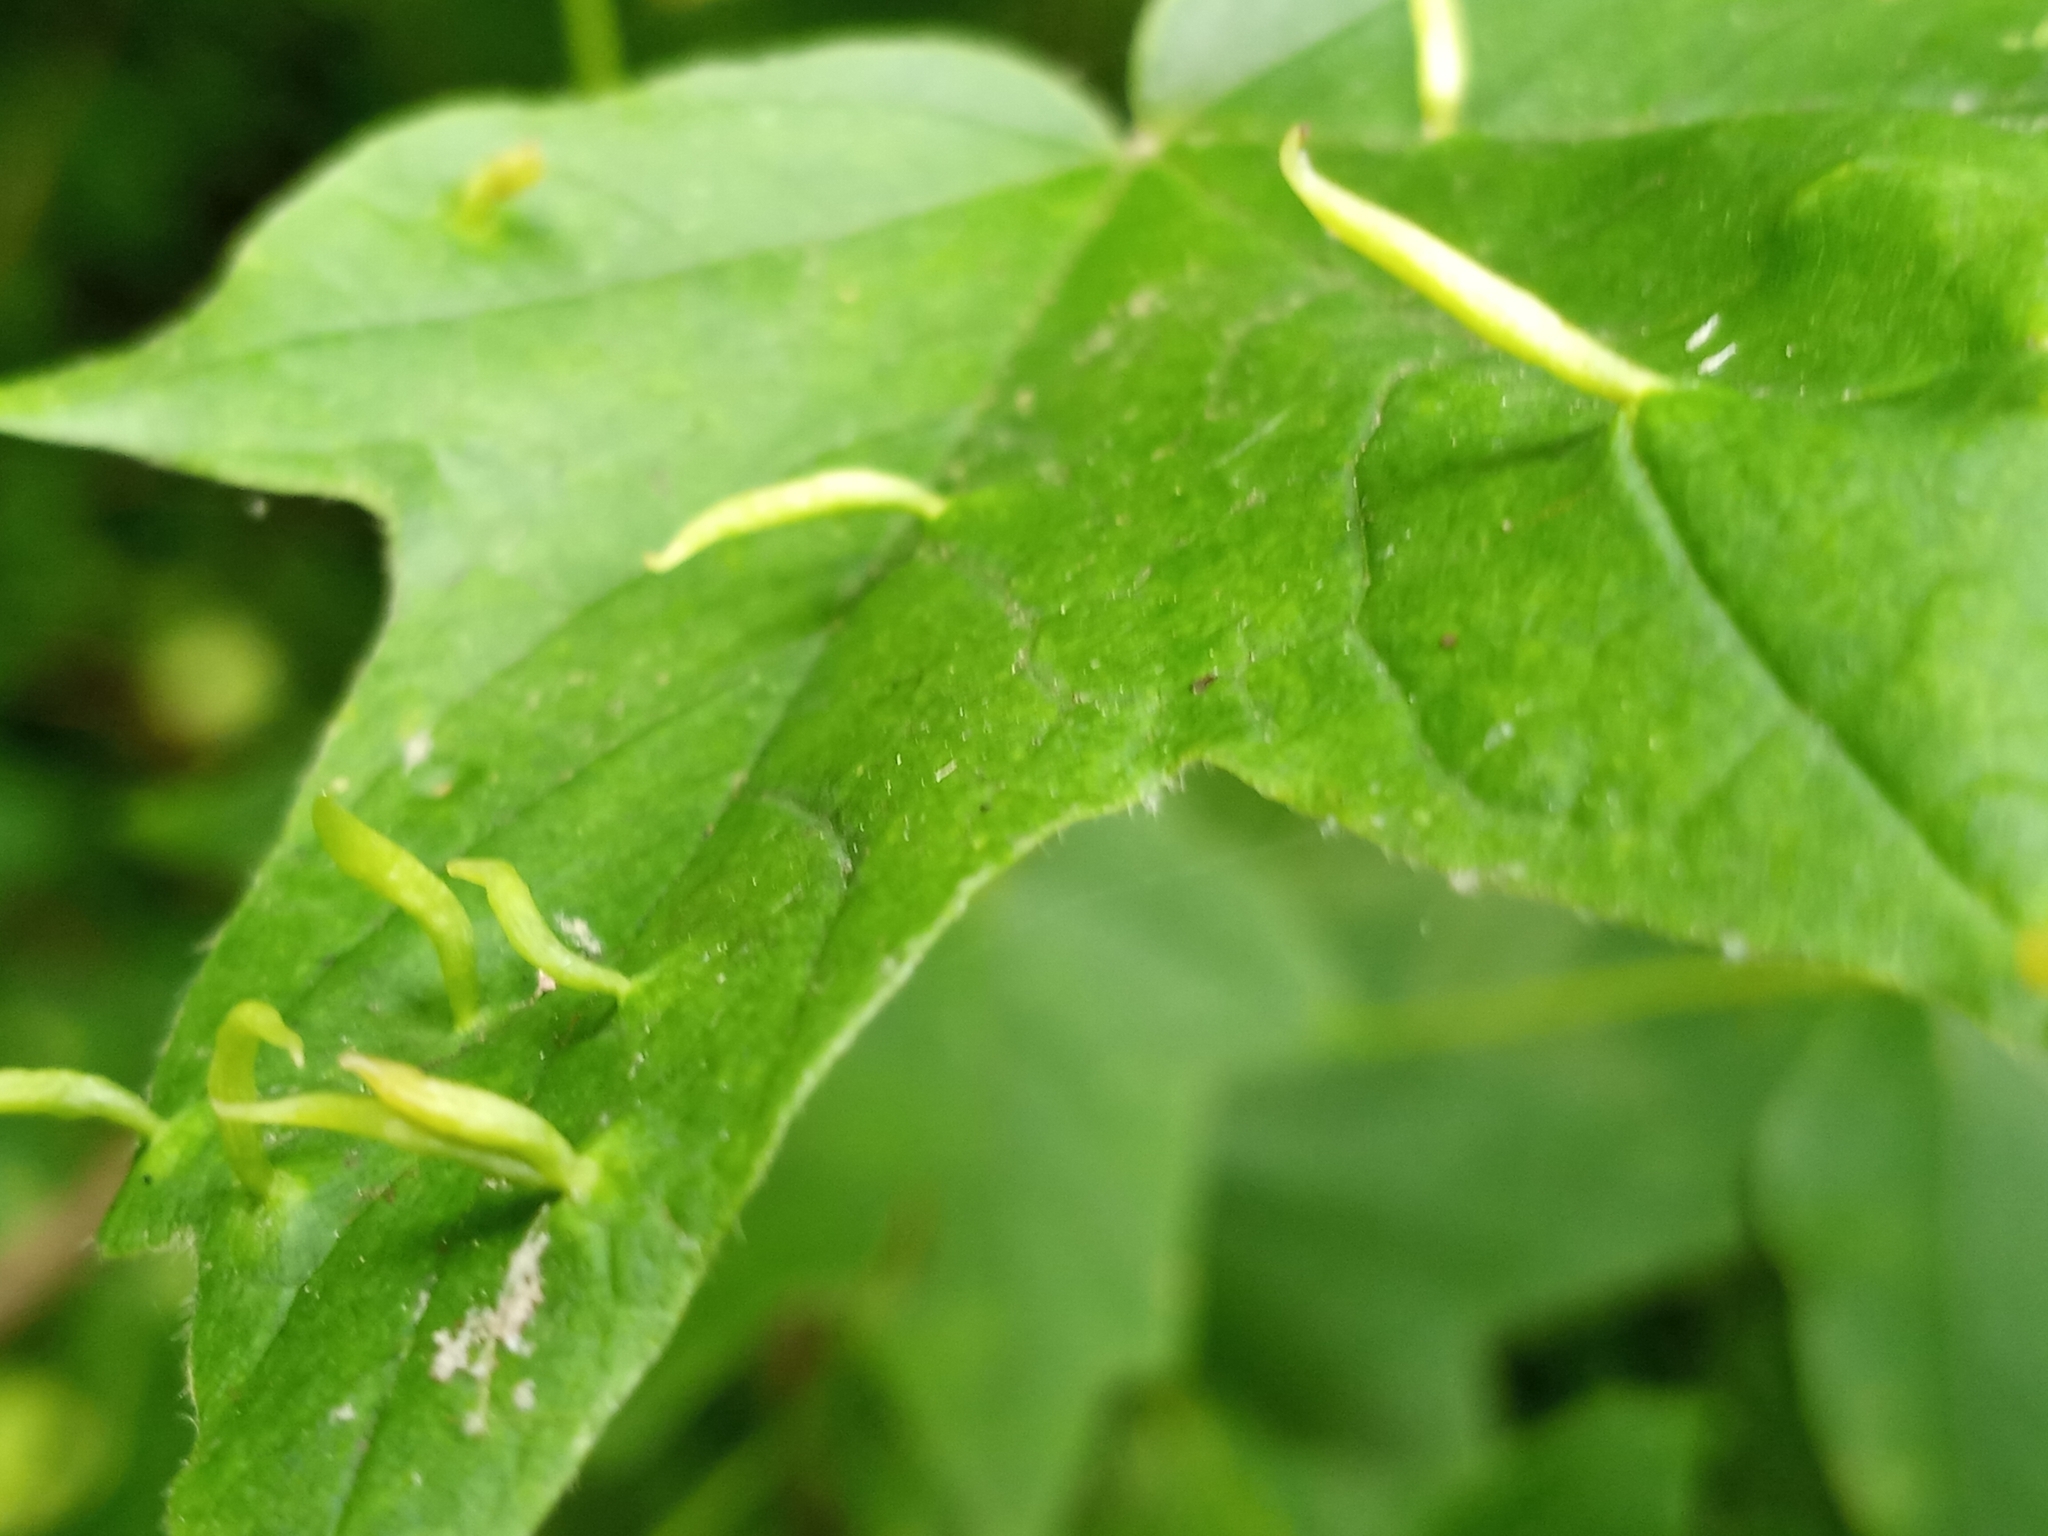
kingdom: Animalia
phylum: Arthropoda
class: Arachnida
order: Trombidiformes
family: Eriophyidae
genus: Vasates
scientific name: Vasates aceriscrumena
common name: Maple spindle gall mite
